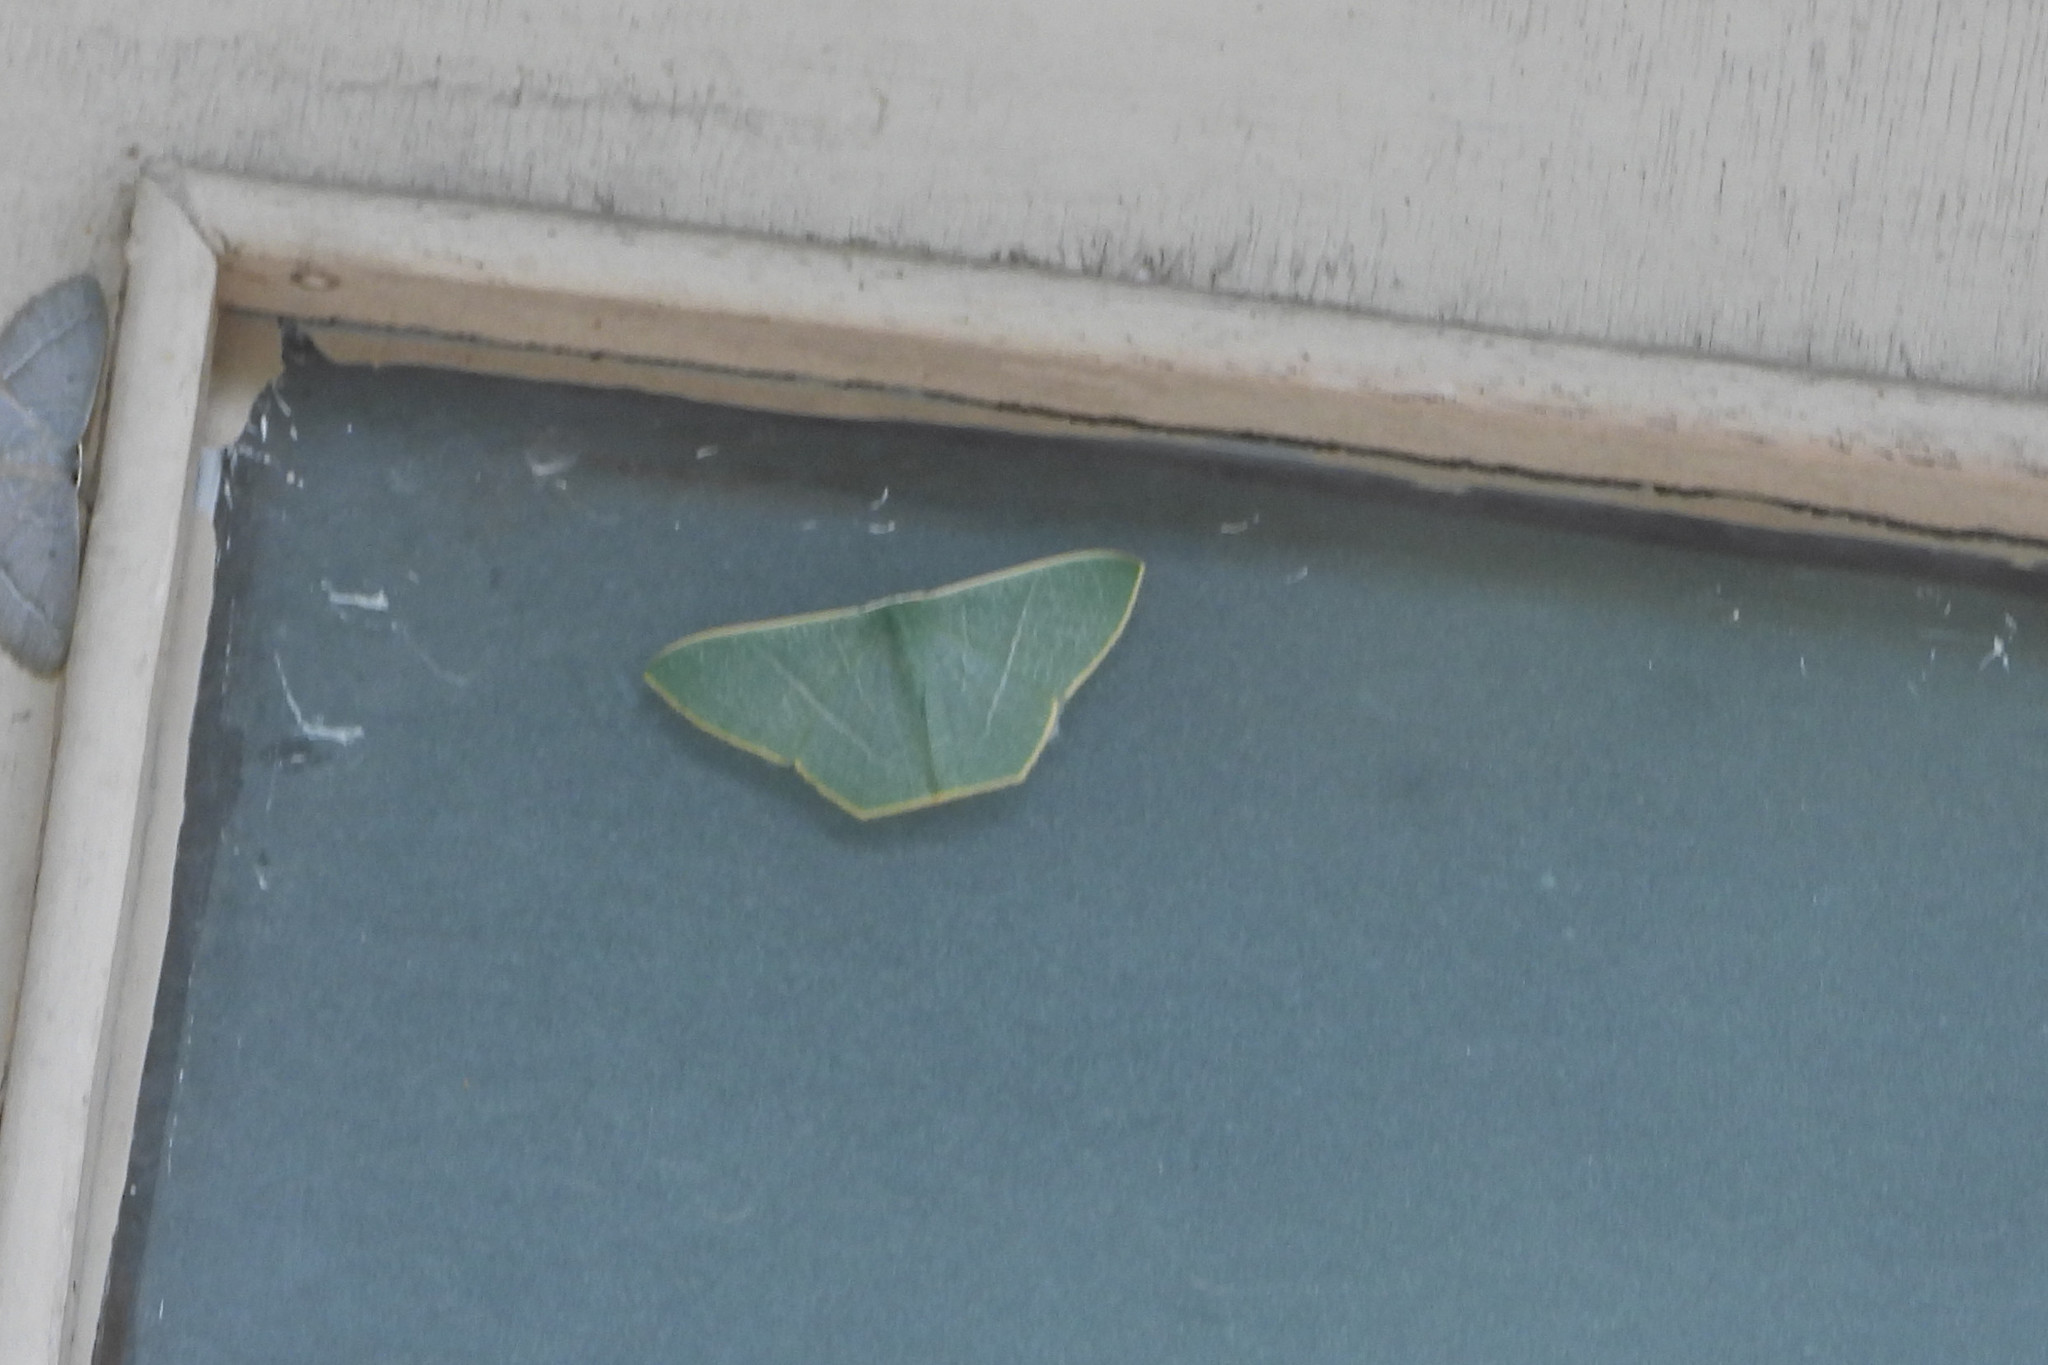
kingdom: Animalia
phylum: Arthropoda
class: Insecta
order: Lepidoptera
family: Geometridae
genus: Pelagodes
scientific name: Pelagodes veraria
